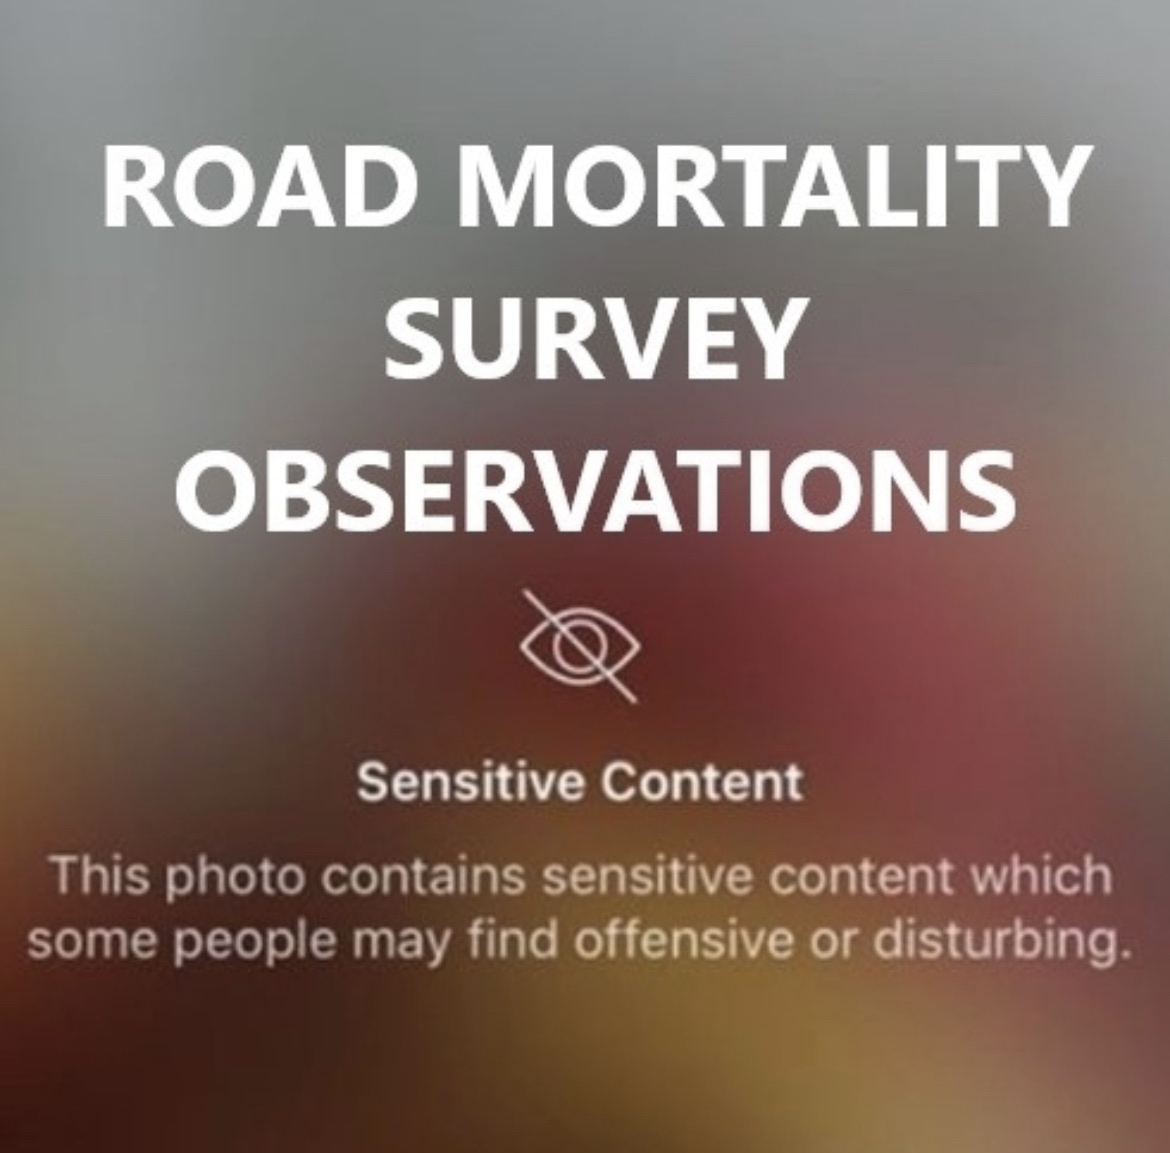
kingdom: Animalia
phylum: Chordata
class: Amphibia
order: Anura
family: Ranidae
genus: Lithobates
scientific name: Lithobates sphenocephalus
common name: Southern leopard frog
